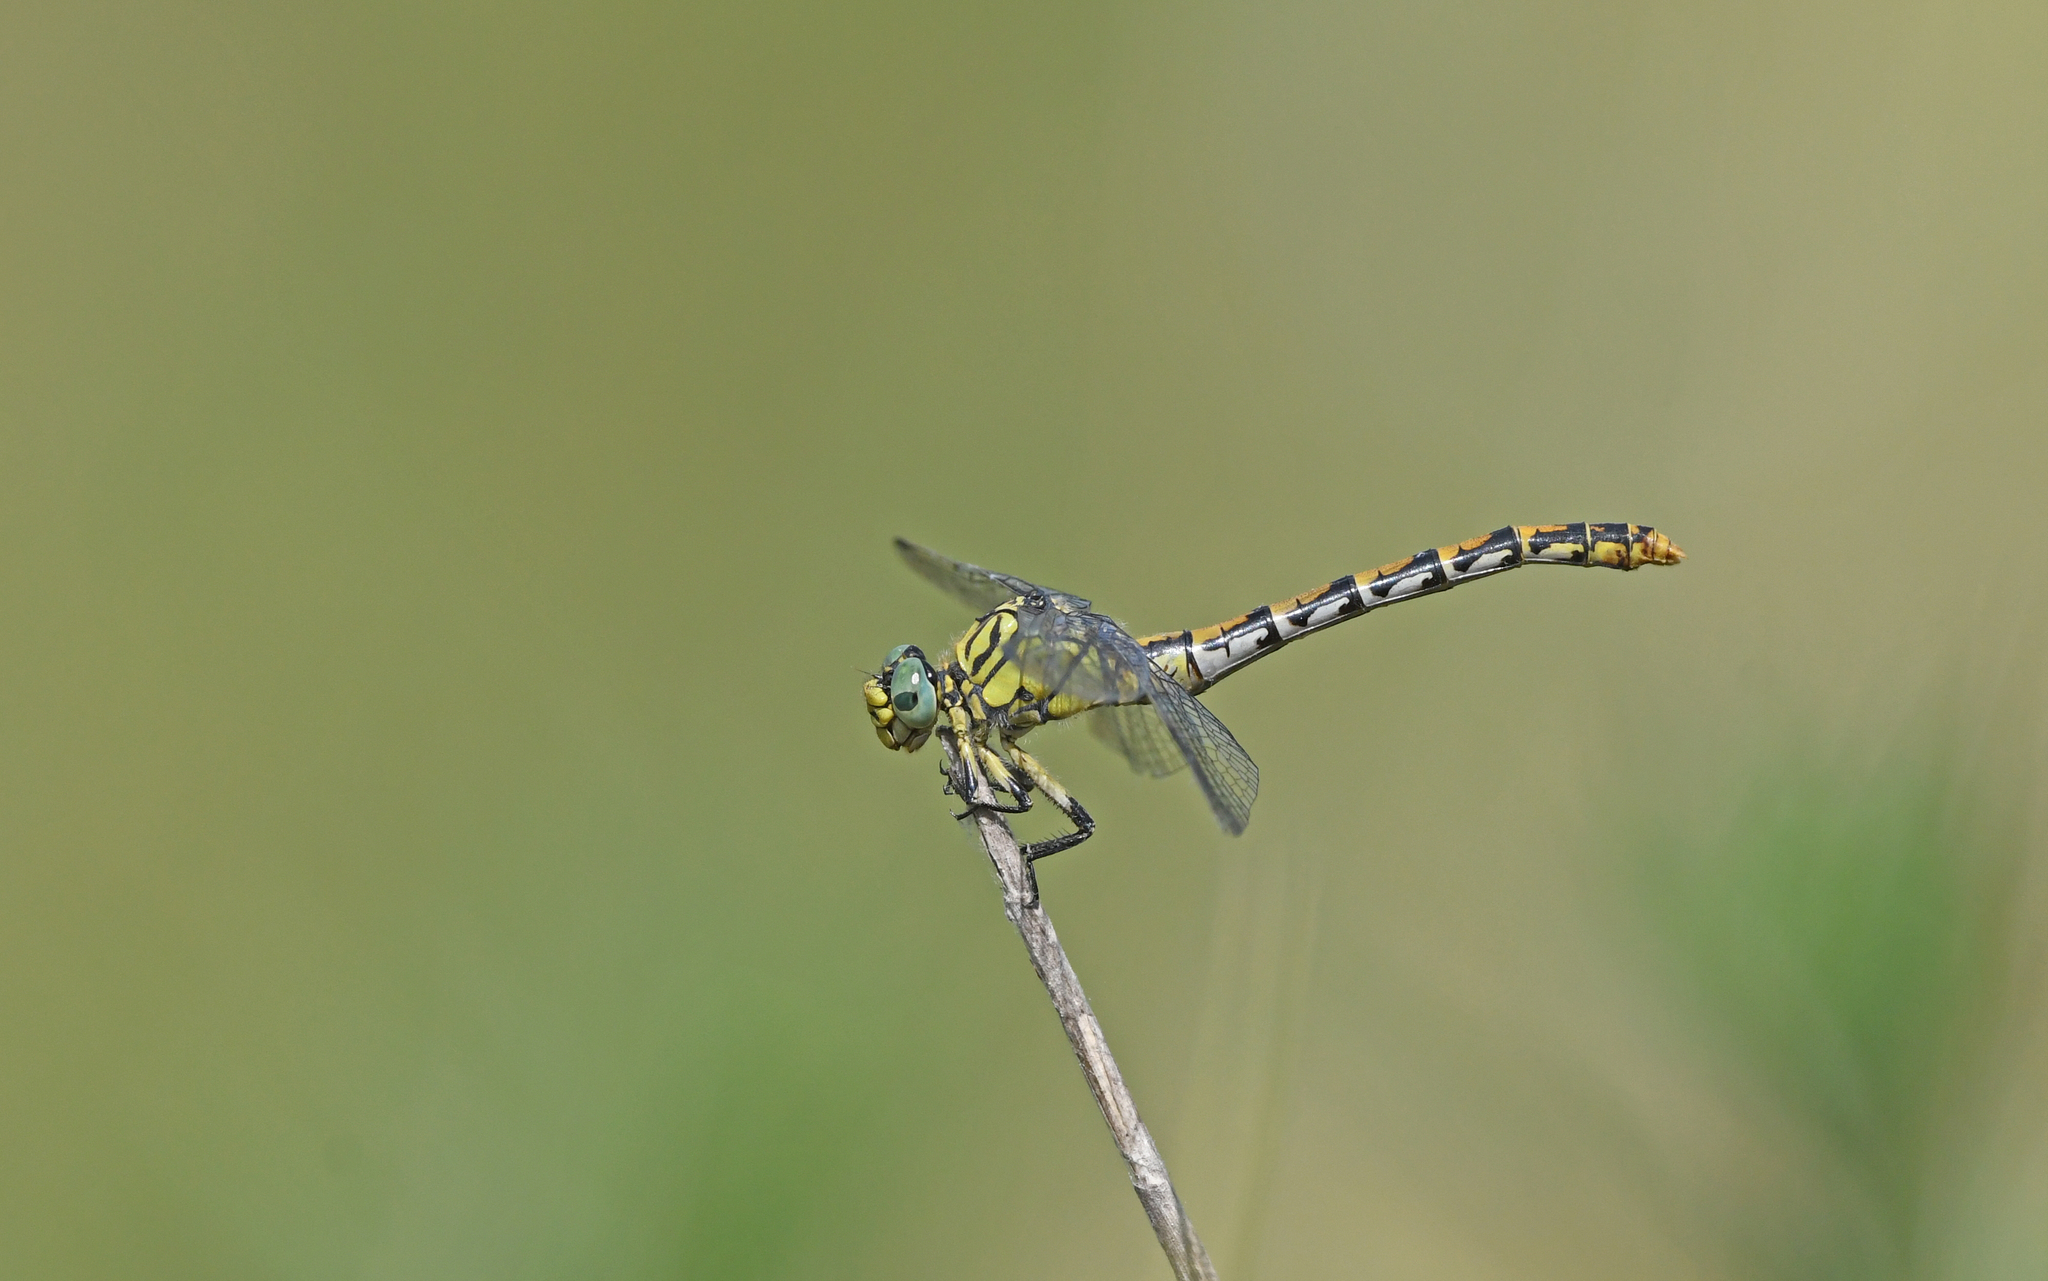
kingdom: Animalia
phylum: Arthropoda
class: Insecta
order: Odonata
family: Gomphidae
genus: Onychogomphus
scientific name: Onychogomphus forcipatus
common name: Small pincertail
